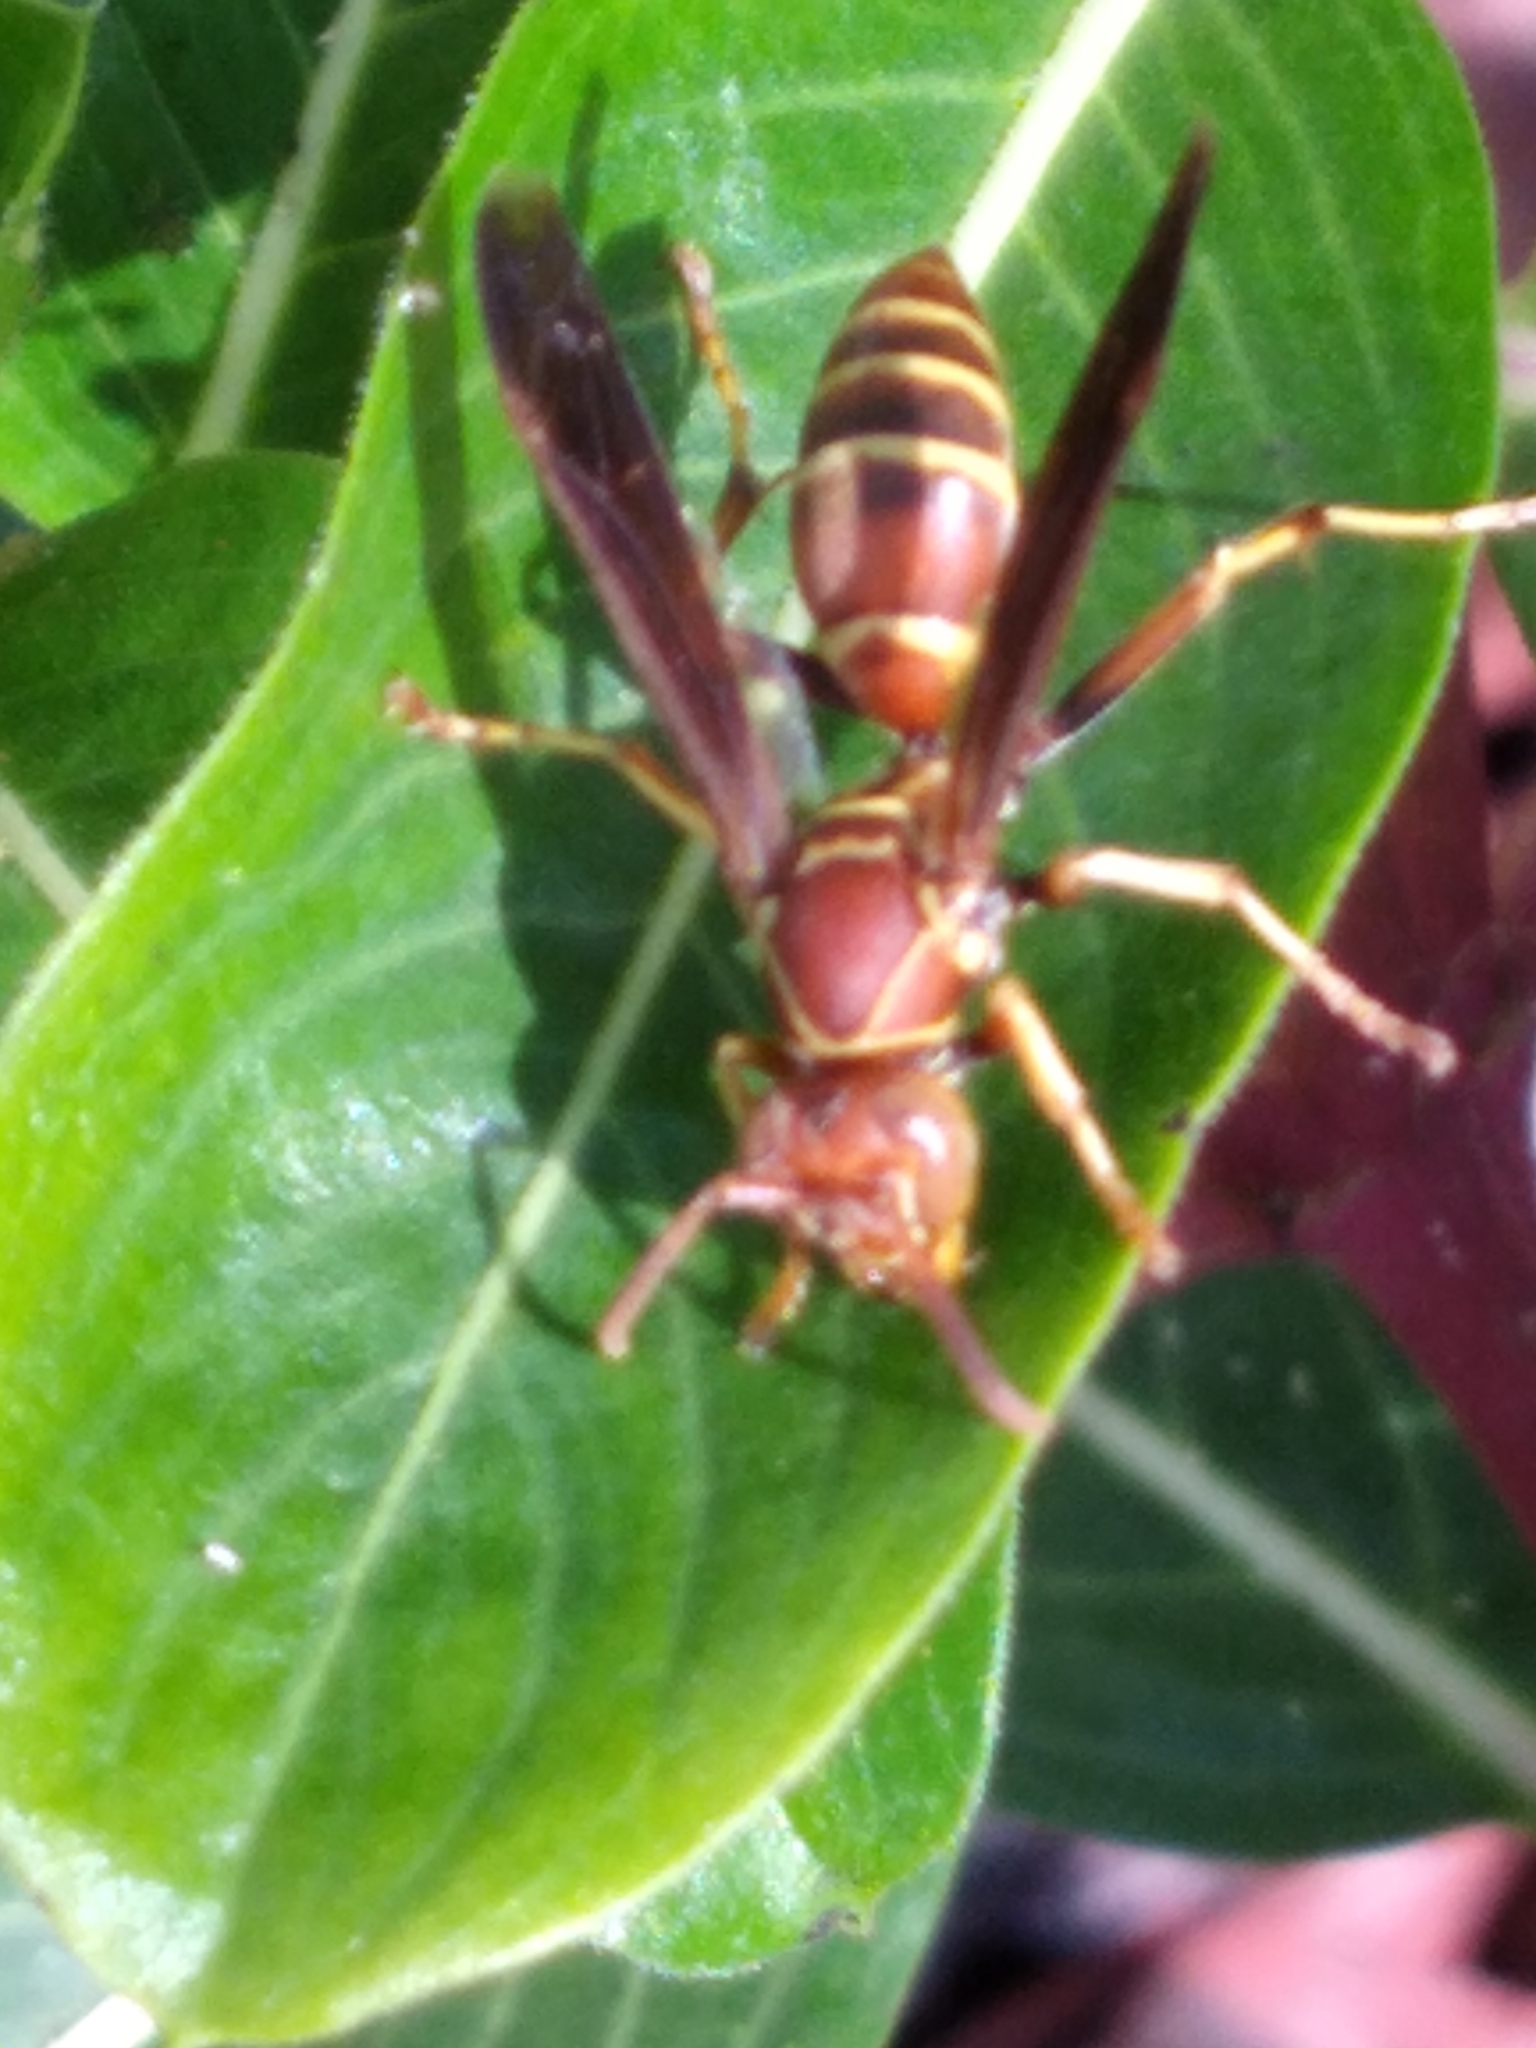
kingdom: Animalia
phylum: Arthropoda
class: Insecta
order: Hymenoptera
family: Eumenidae
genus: Polistes
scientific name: Polistes dorsalis
